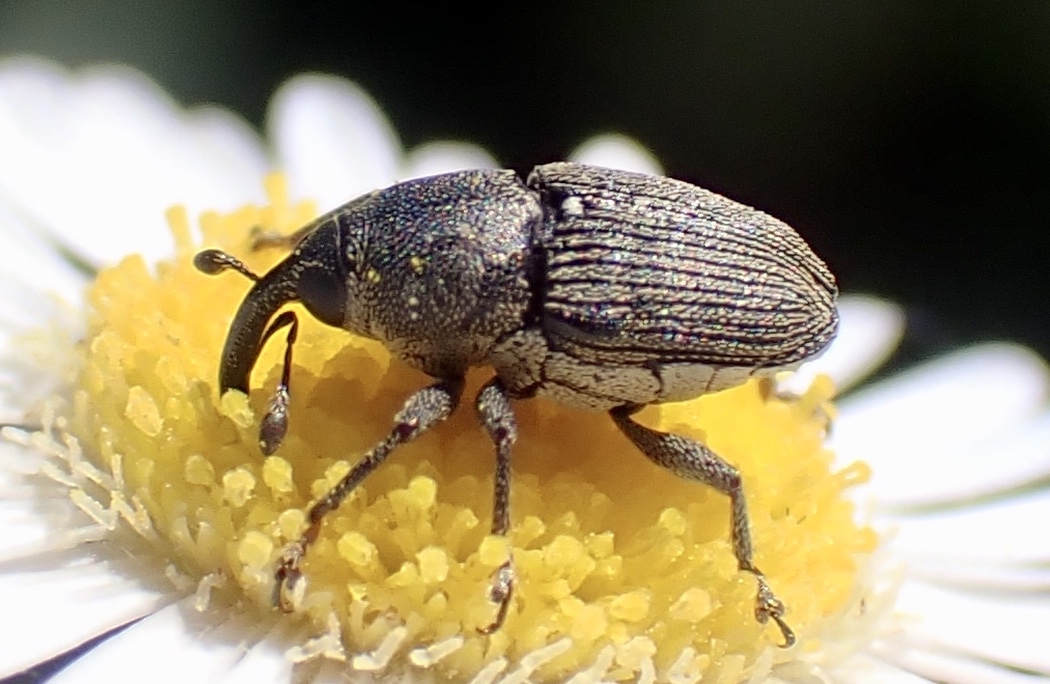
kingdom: Animalia
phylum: Arthropoda
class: Insecta
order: Coleoptera
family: Curculionidae
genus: Odontocorynus
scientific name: Odontocorynus salebrosus
